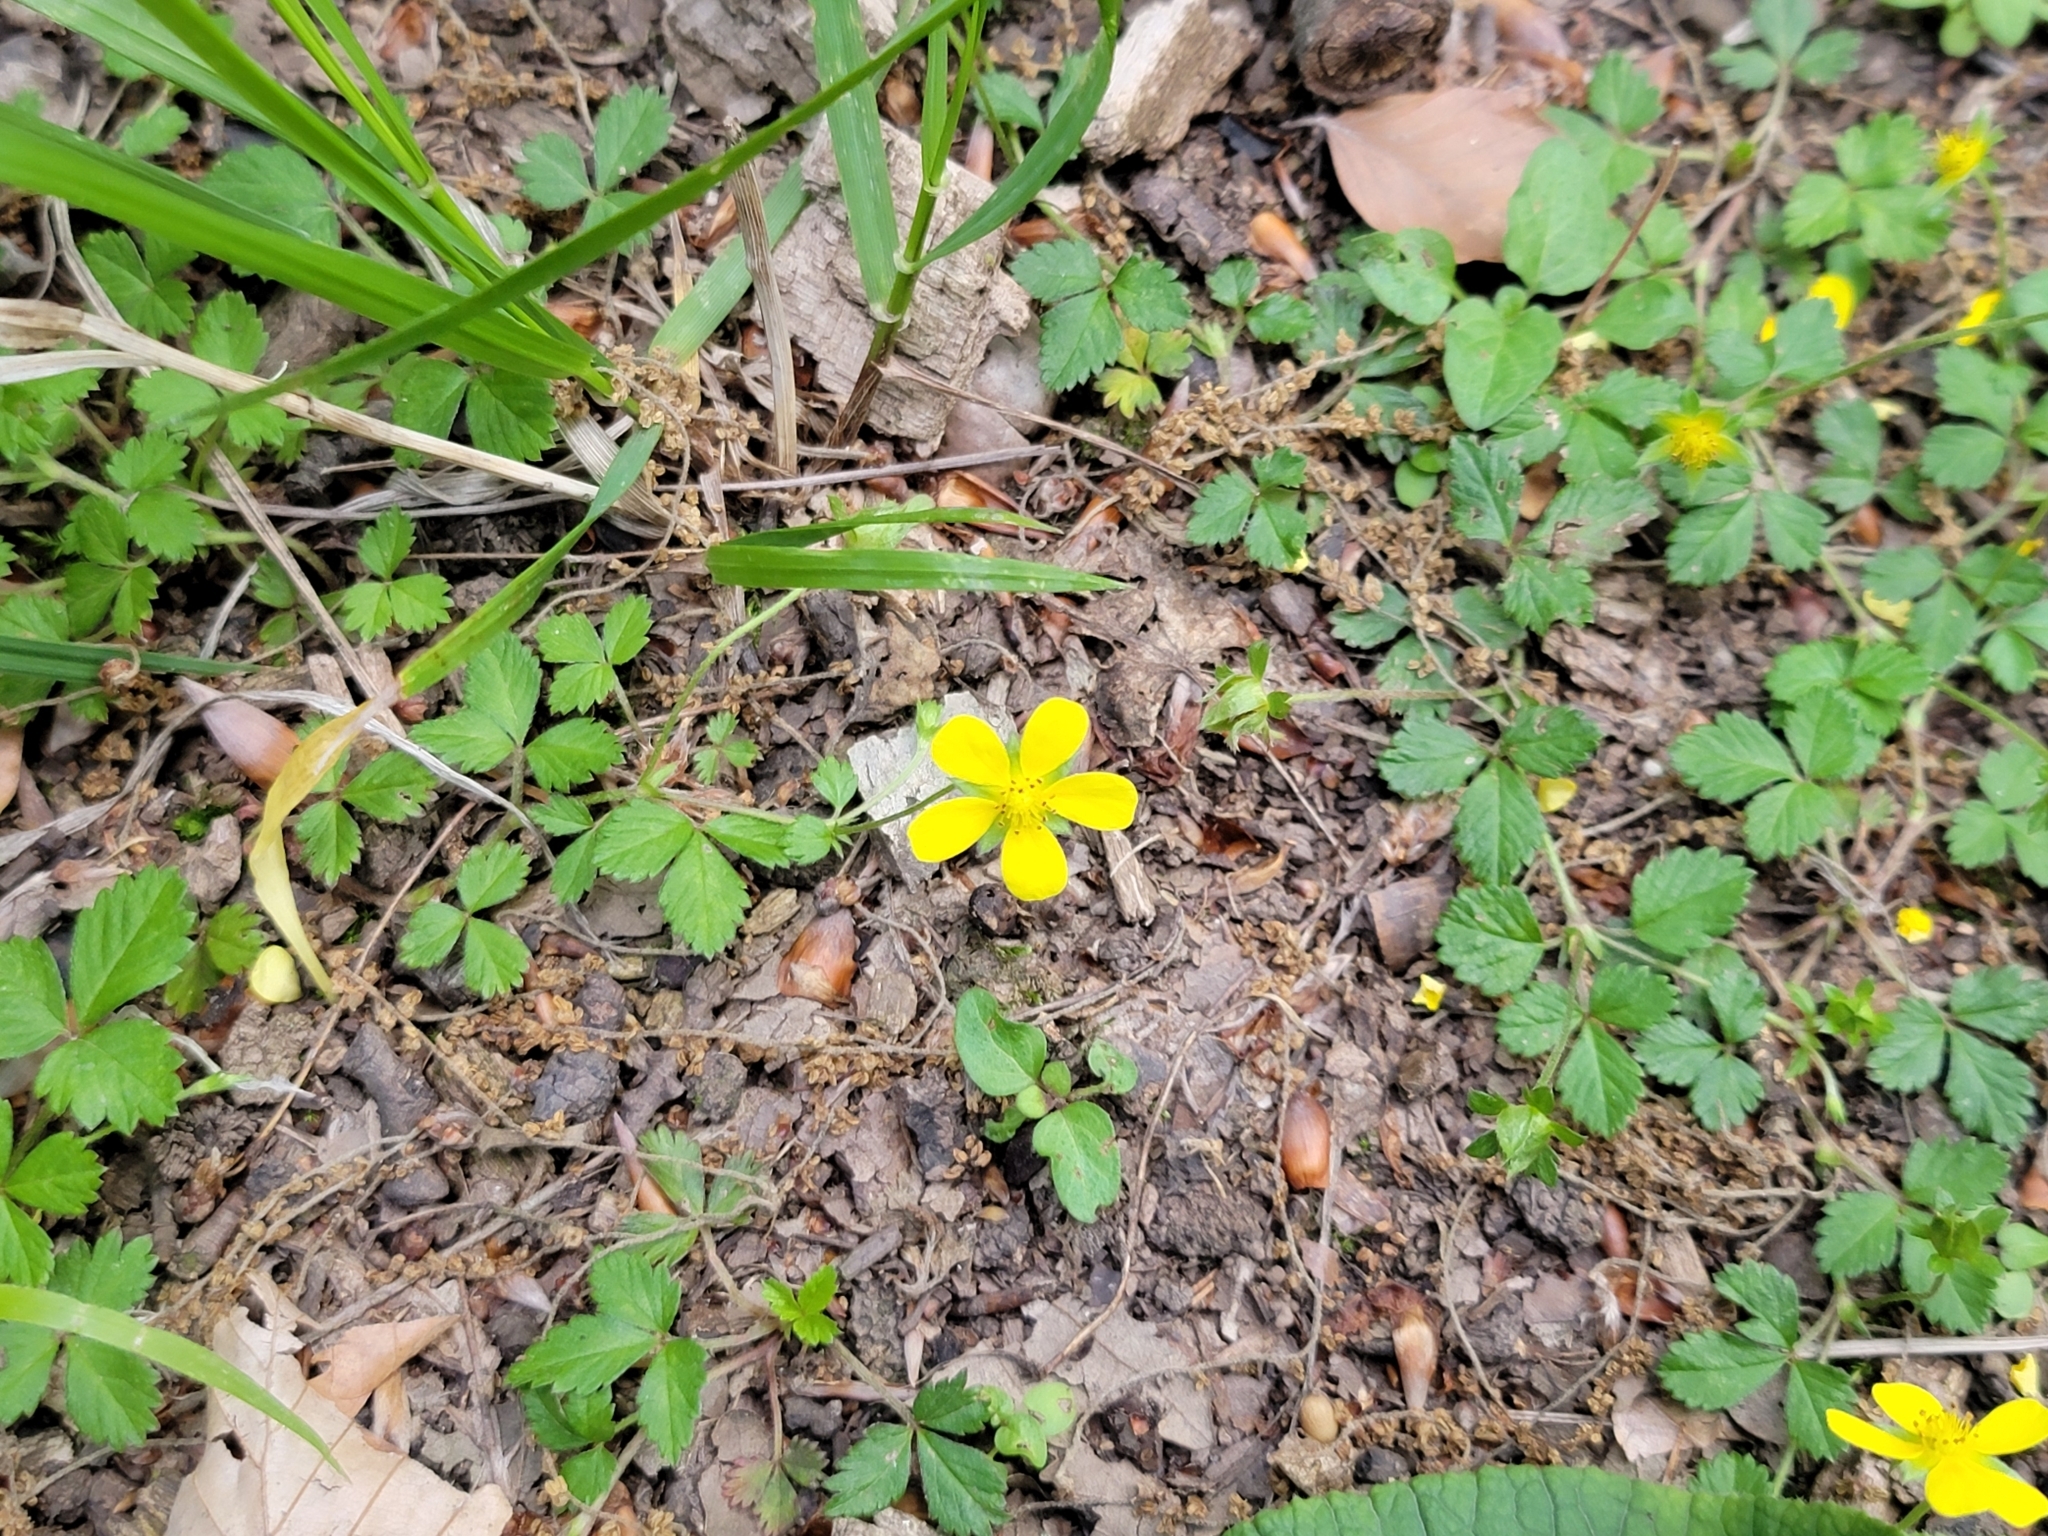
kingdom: Plantae
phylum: Tracheophyta
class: Magnoliopsida
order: Rosales
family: Rosaceae
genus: Potentilla
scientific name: Potentilla indica
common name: Yellow-flowered strawberry
